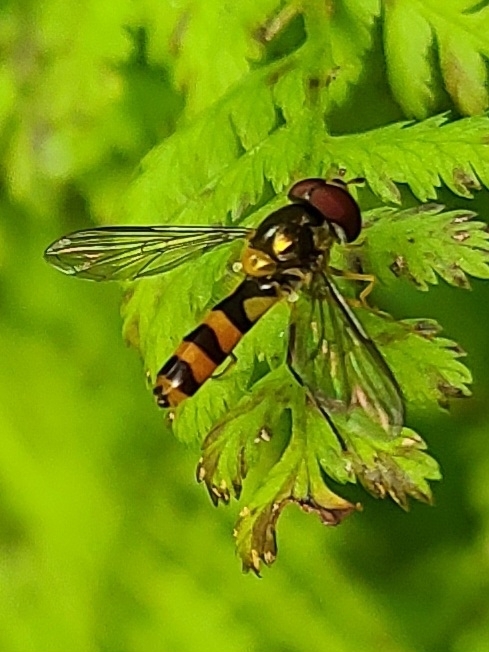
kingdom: Animalia
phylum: Arthropoda
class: Insecta
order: Diptera
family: Syrphidae
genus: Meliscaeva
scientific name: Meliscaeva cinctella
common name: American thintail fly
